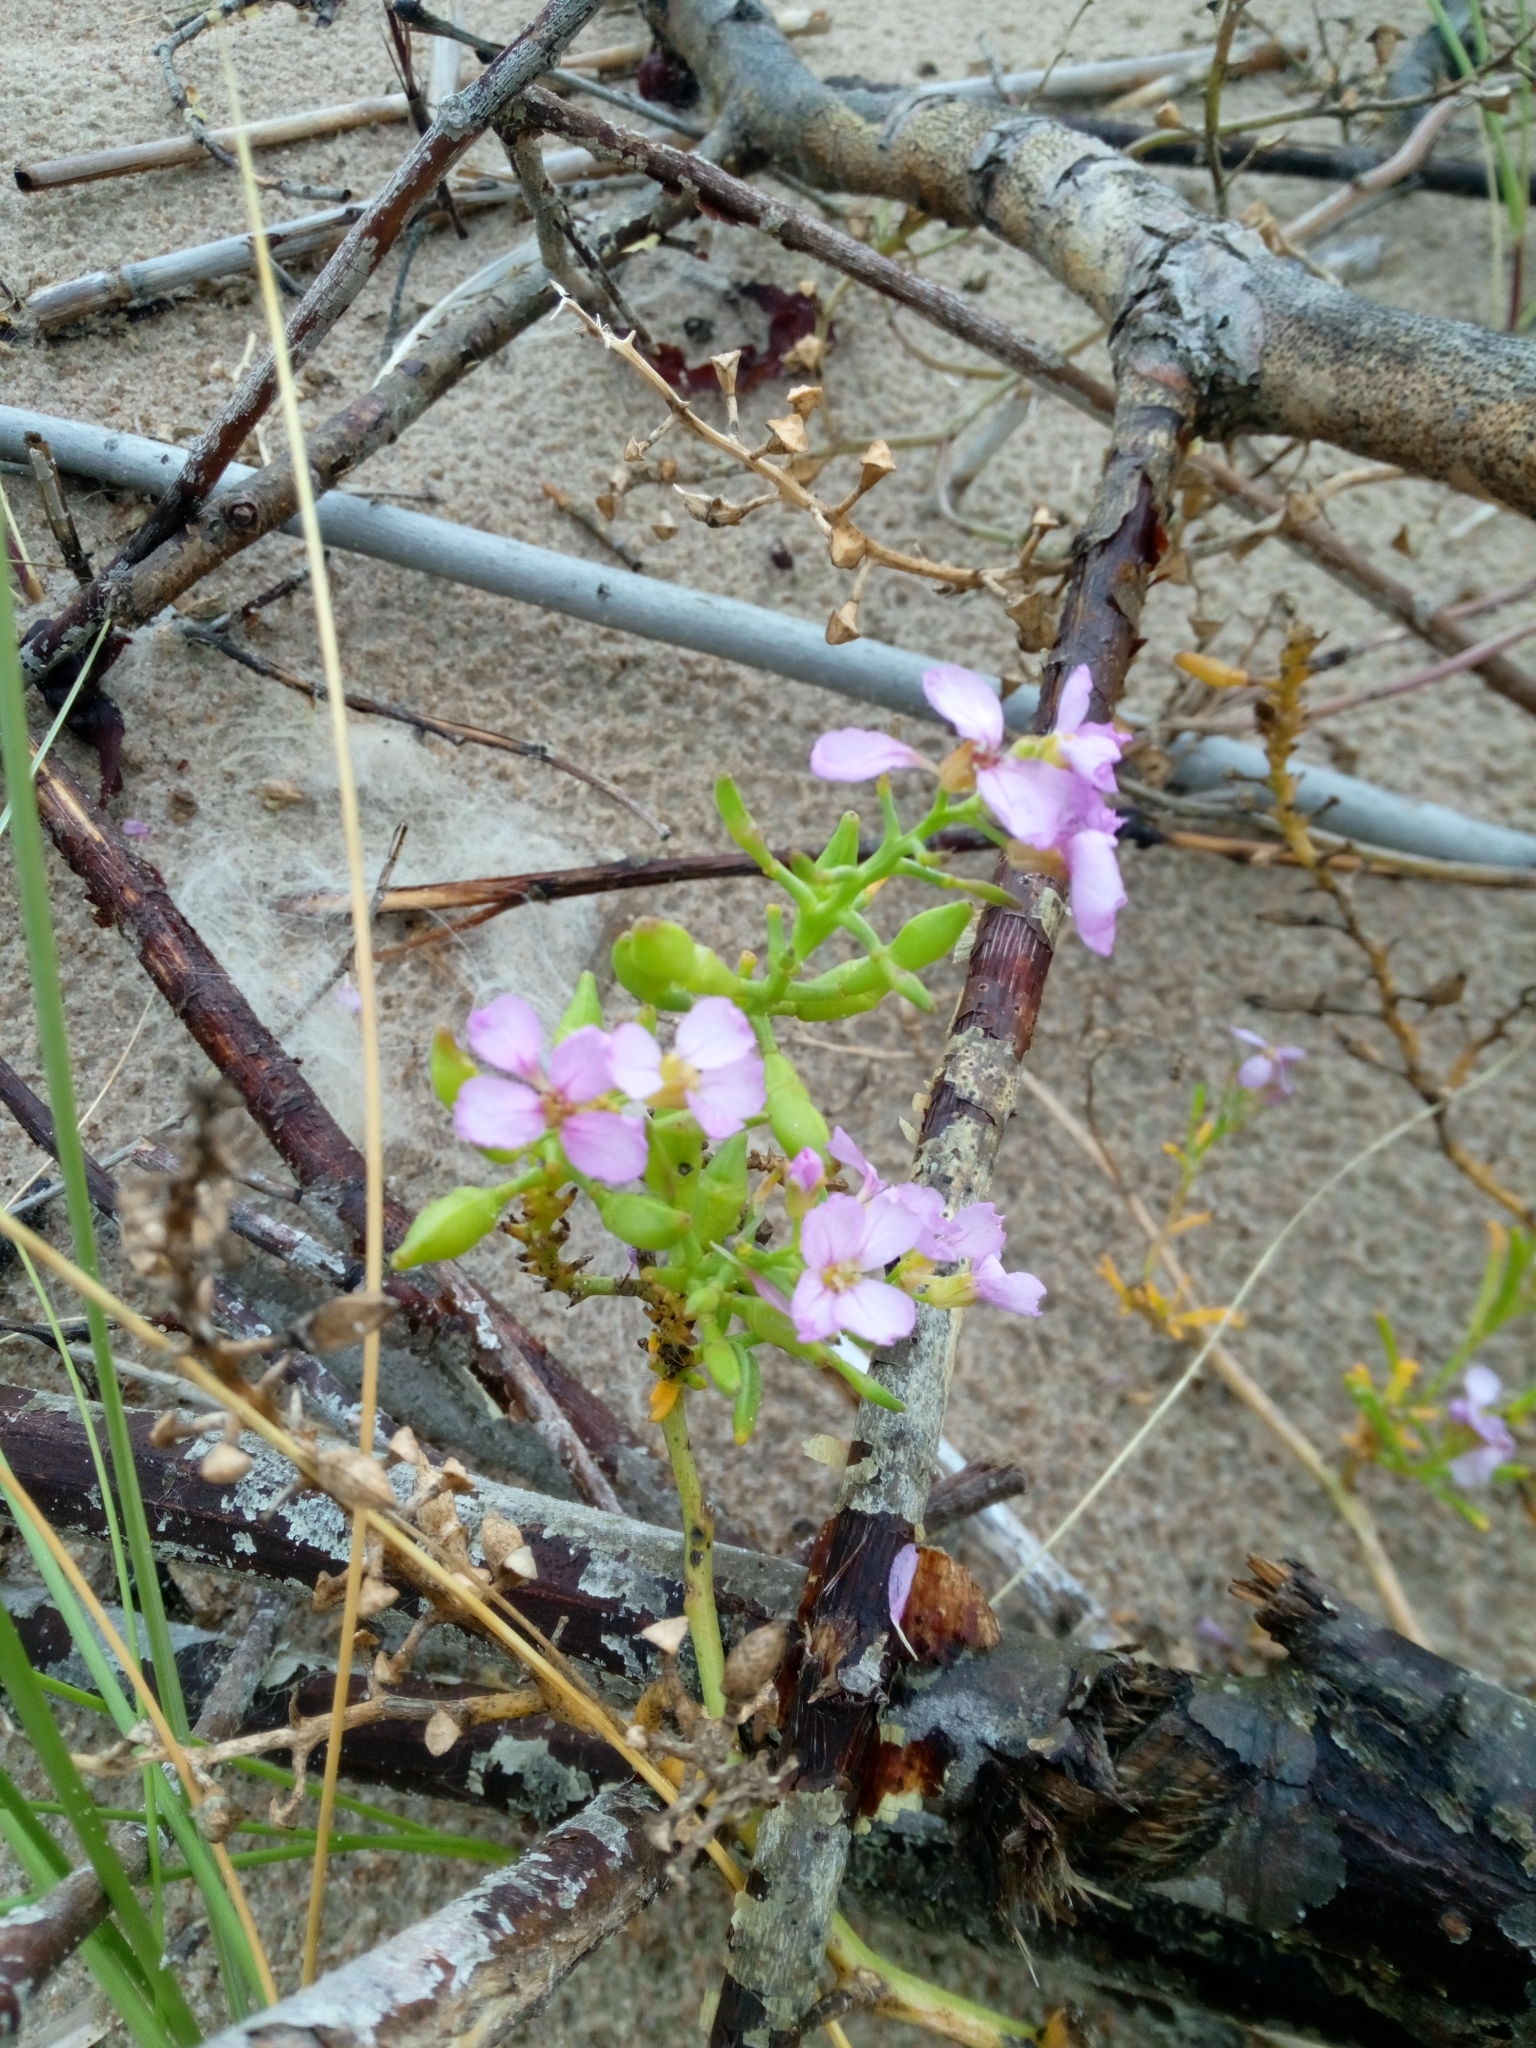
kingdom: Plantae
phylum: Tracheophyta
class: Magnoliopsida
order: Brassicales
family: Brassicaceae
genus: Cakile
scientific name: Cakile maritima
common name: Sea rocket
